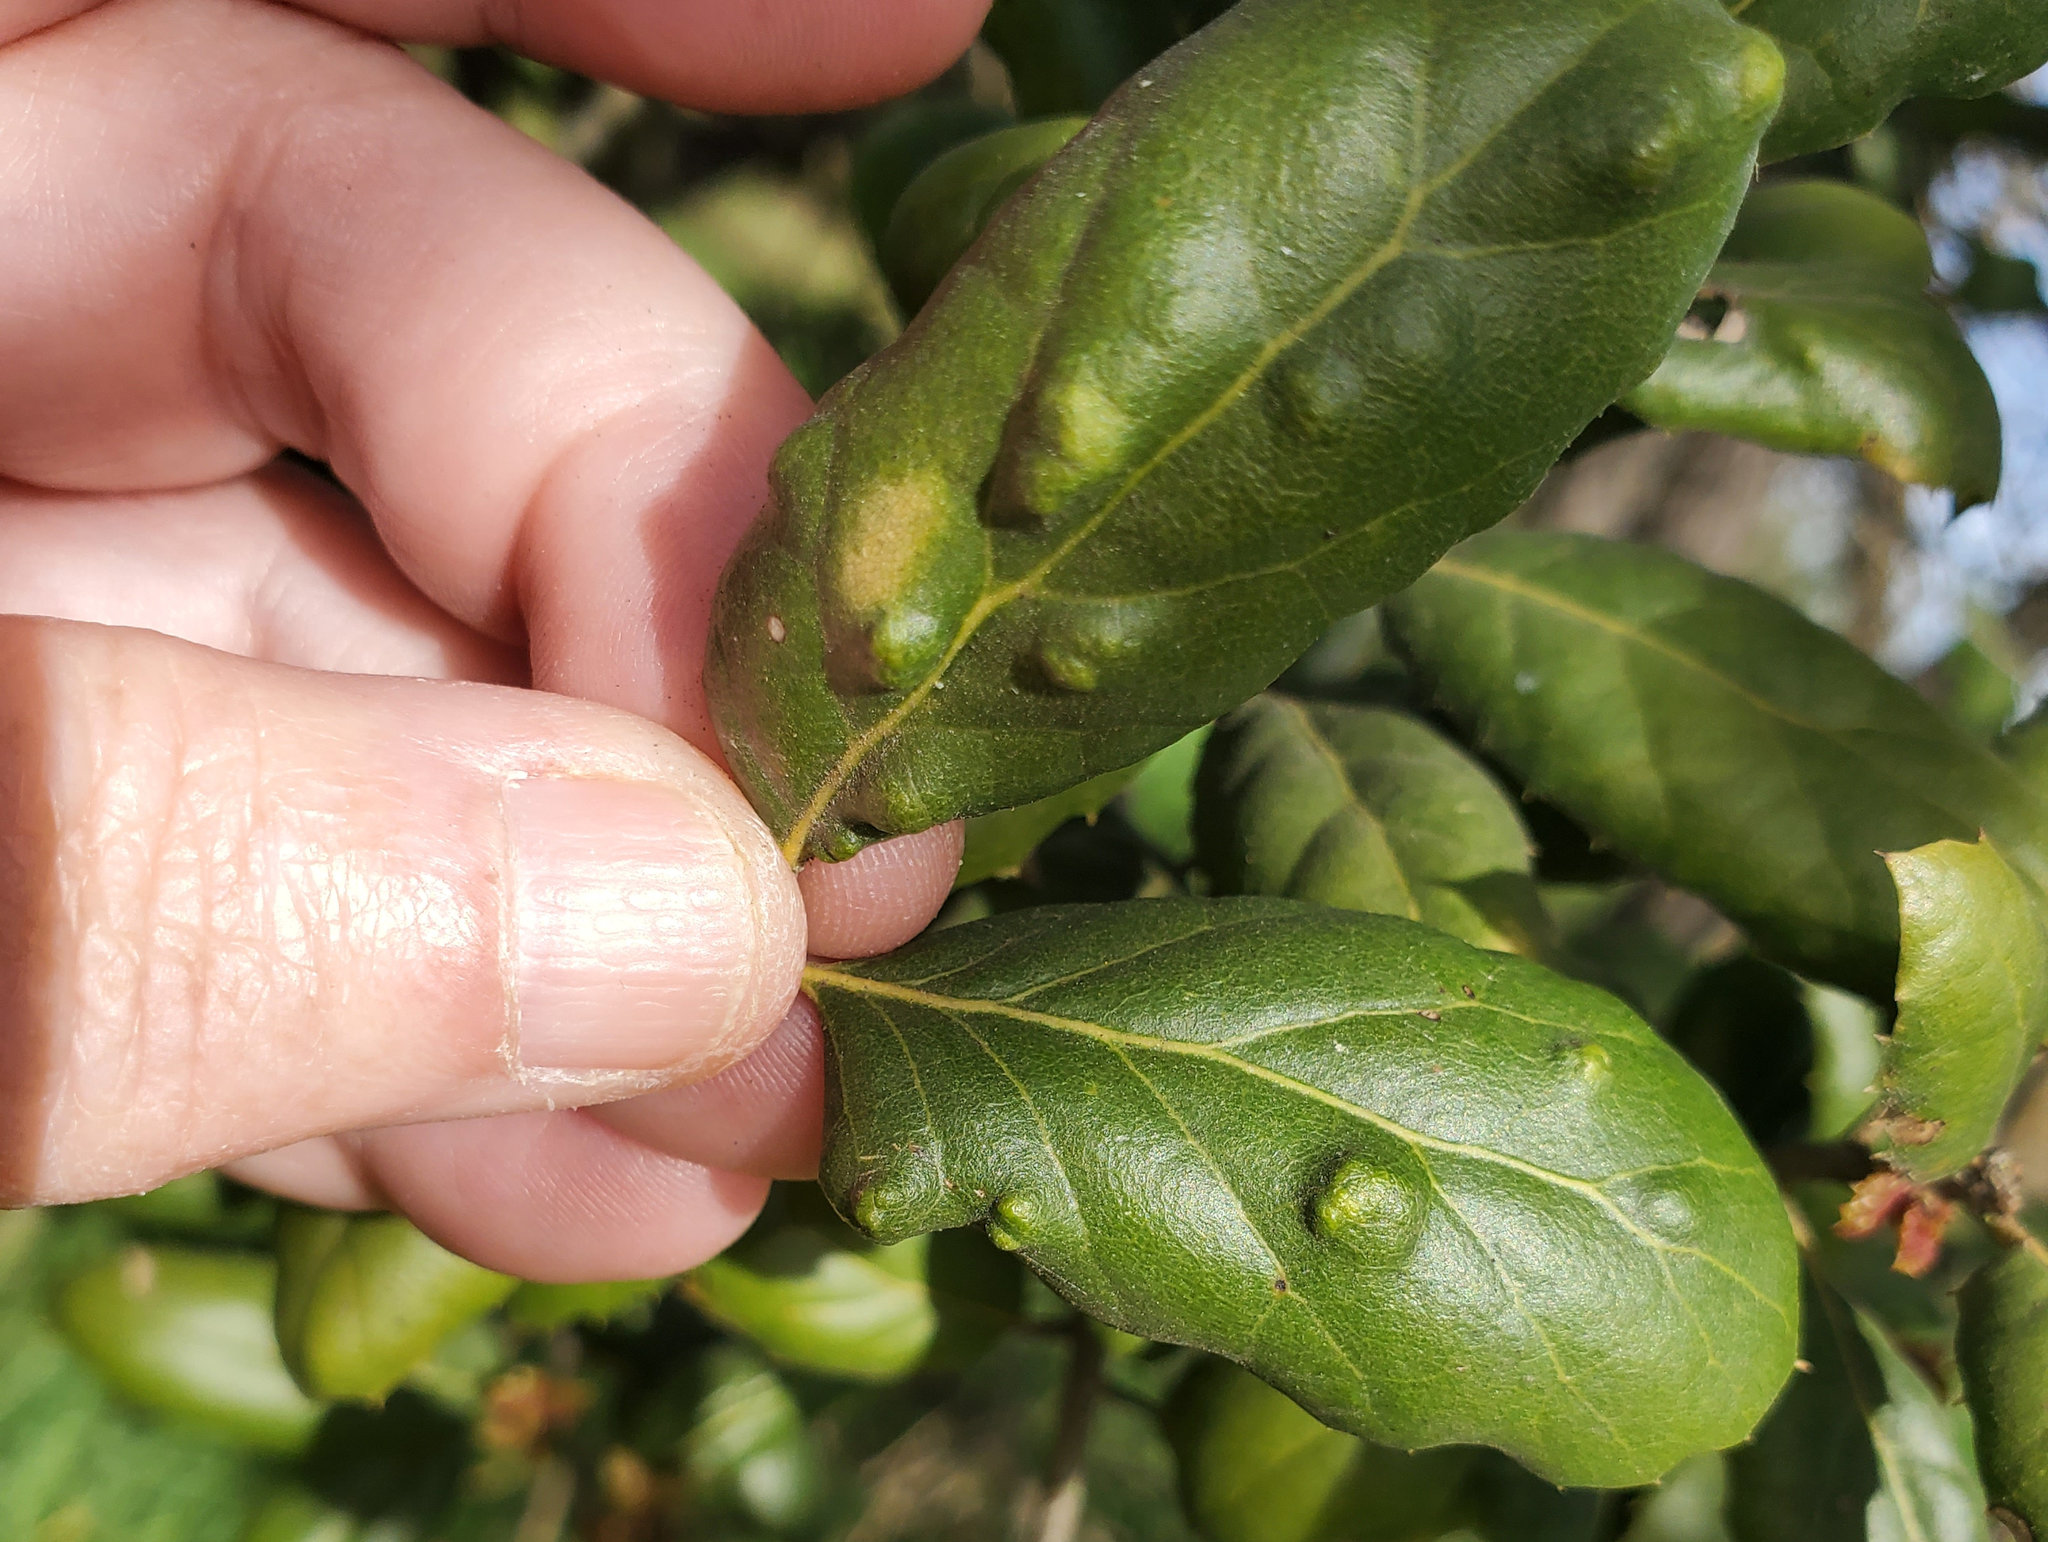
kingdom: Animalia
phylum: Arthropoda
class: Arachnida
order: Trombidiformes
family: Eriophyidae
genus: Aceria
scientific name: Aceria
